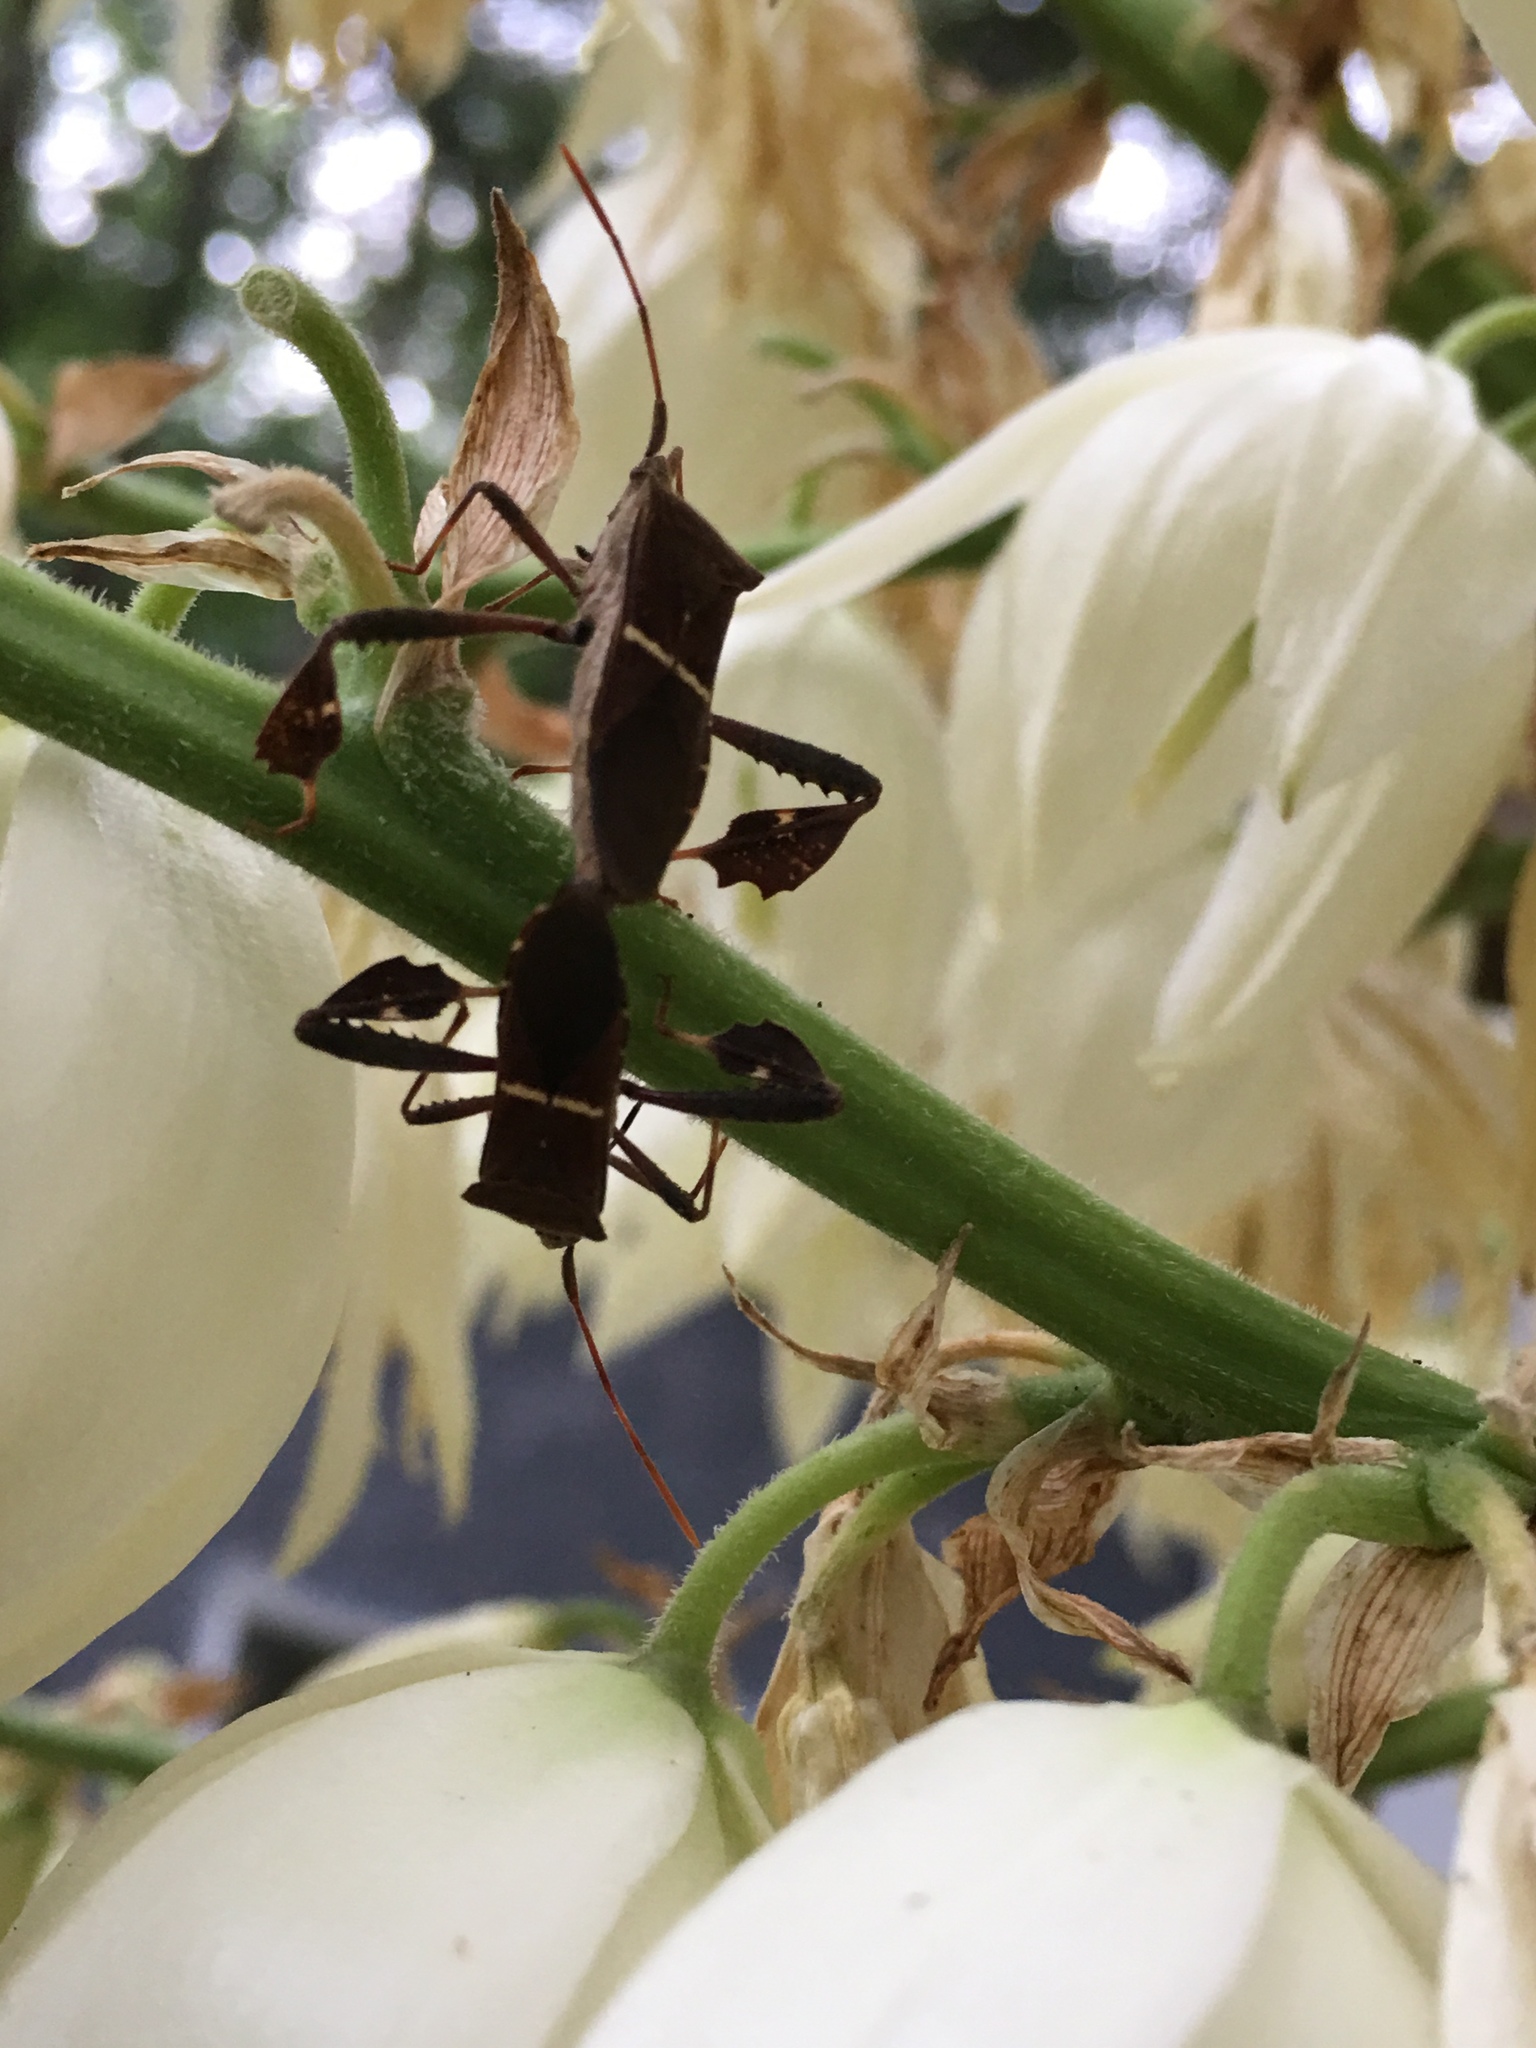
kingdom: Animalia
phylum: Arthropoda
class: Insecta
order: Hemiptera
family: Coreidae
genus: Leptoglossus
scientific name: Leptoglossus phyllopus
